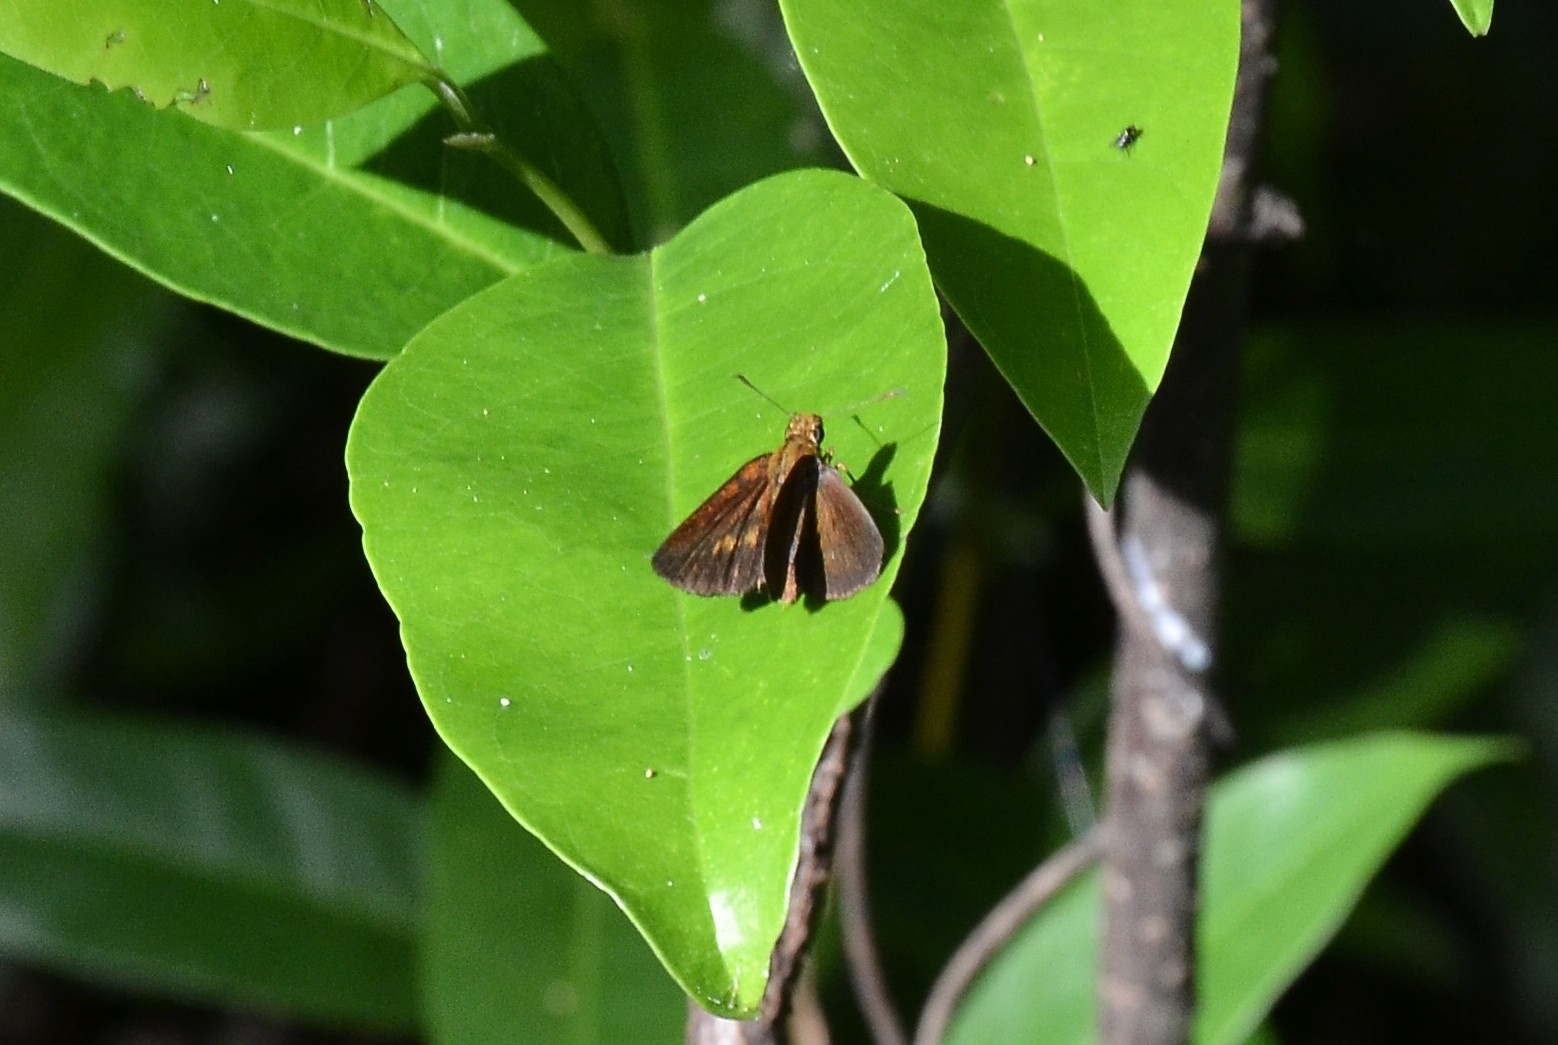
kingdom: Animalia
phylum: Arthropoda
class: Insecta
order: Lepidoptera
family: Hesperiidae
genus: Iambrix
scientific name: Iambrix salsala
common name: Chestnut bob
